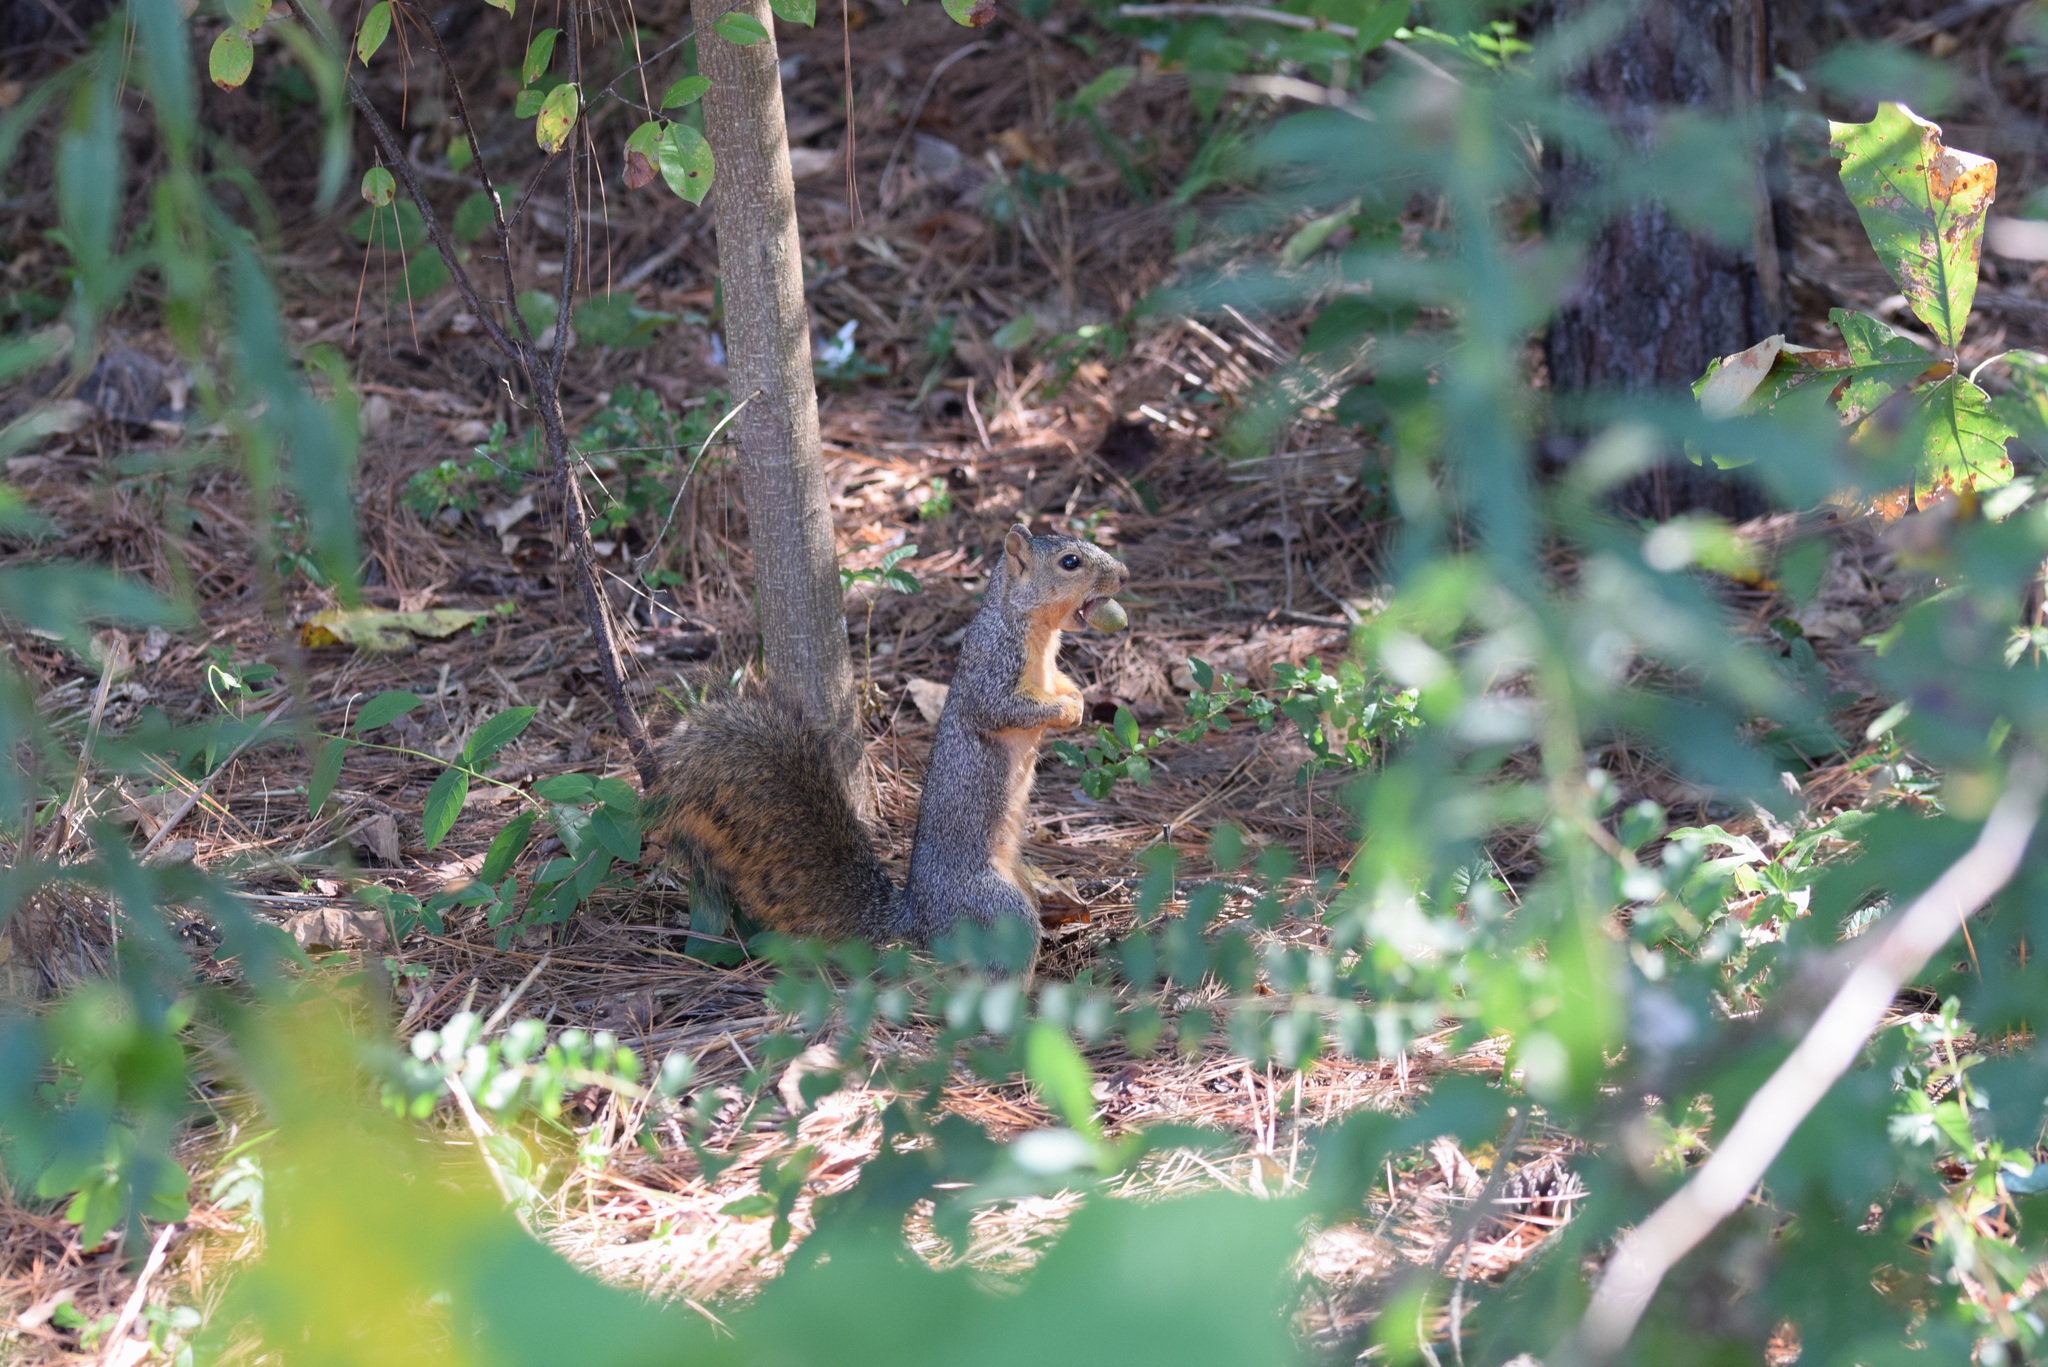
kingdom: Animalia
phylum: Chordata
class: Mammalia
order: Rodentia
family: Sciuridae
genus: Sciurus
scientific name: Sciurus niger
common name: Fox squirrel
